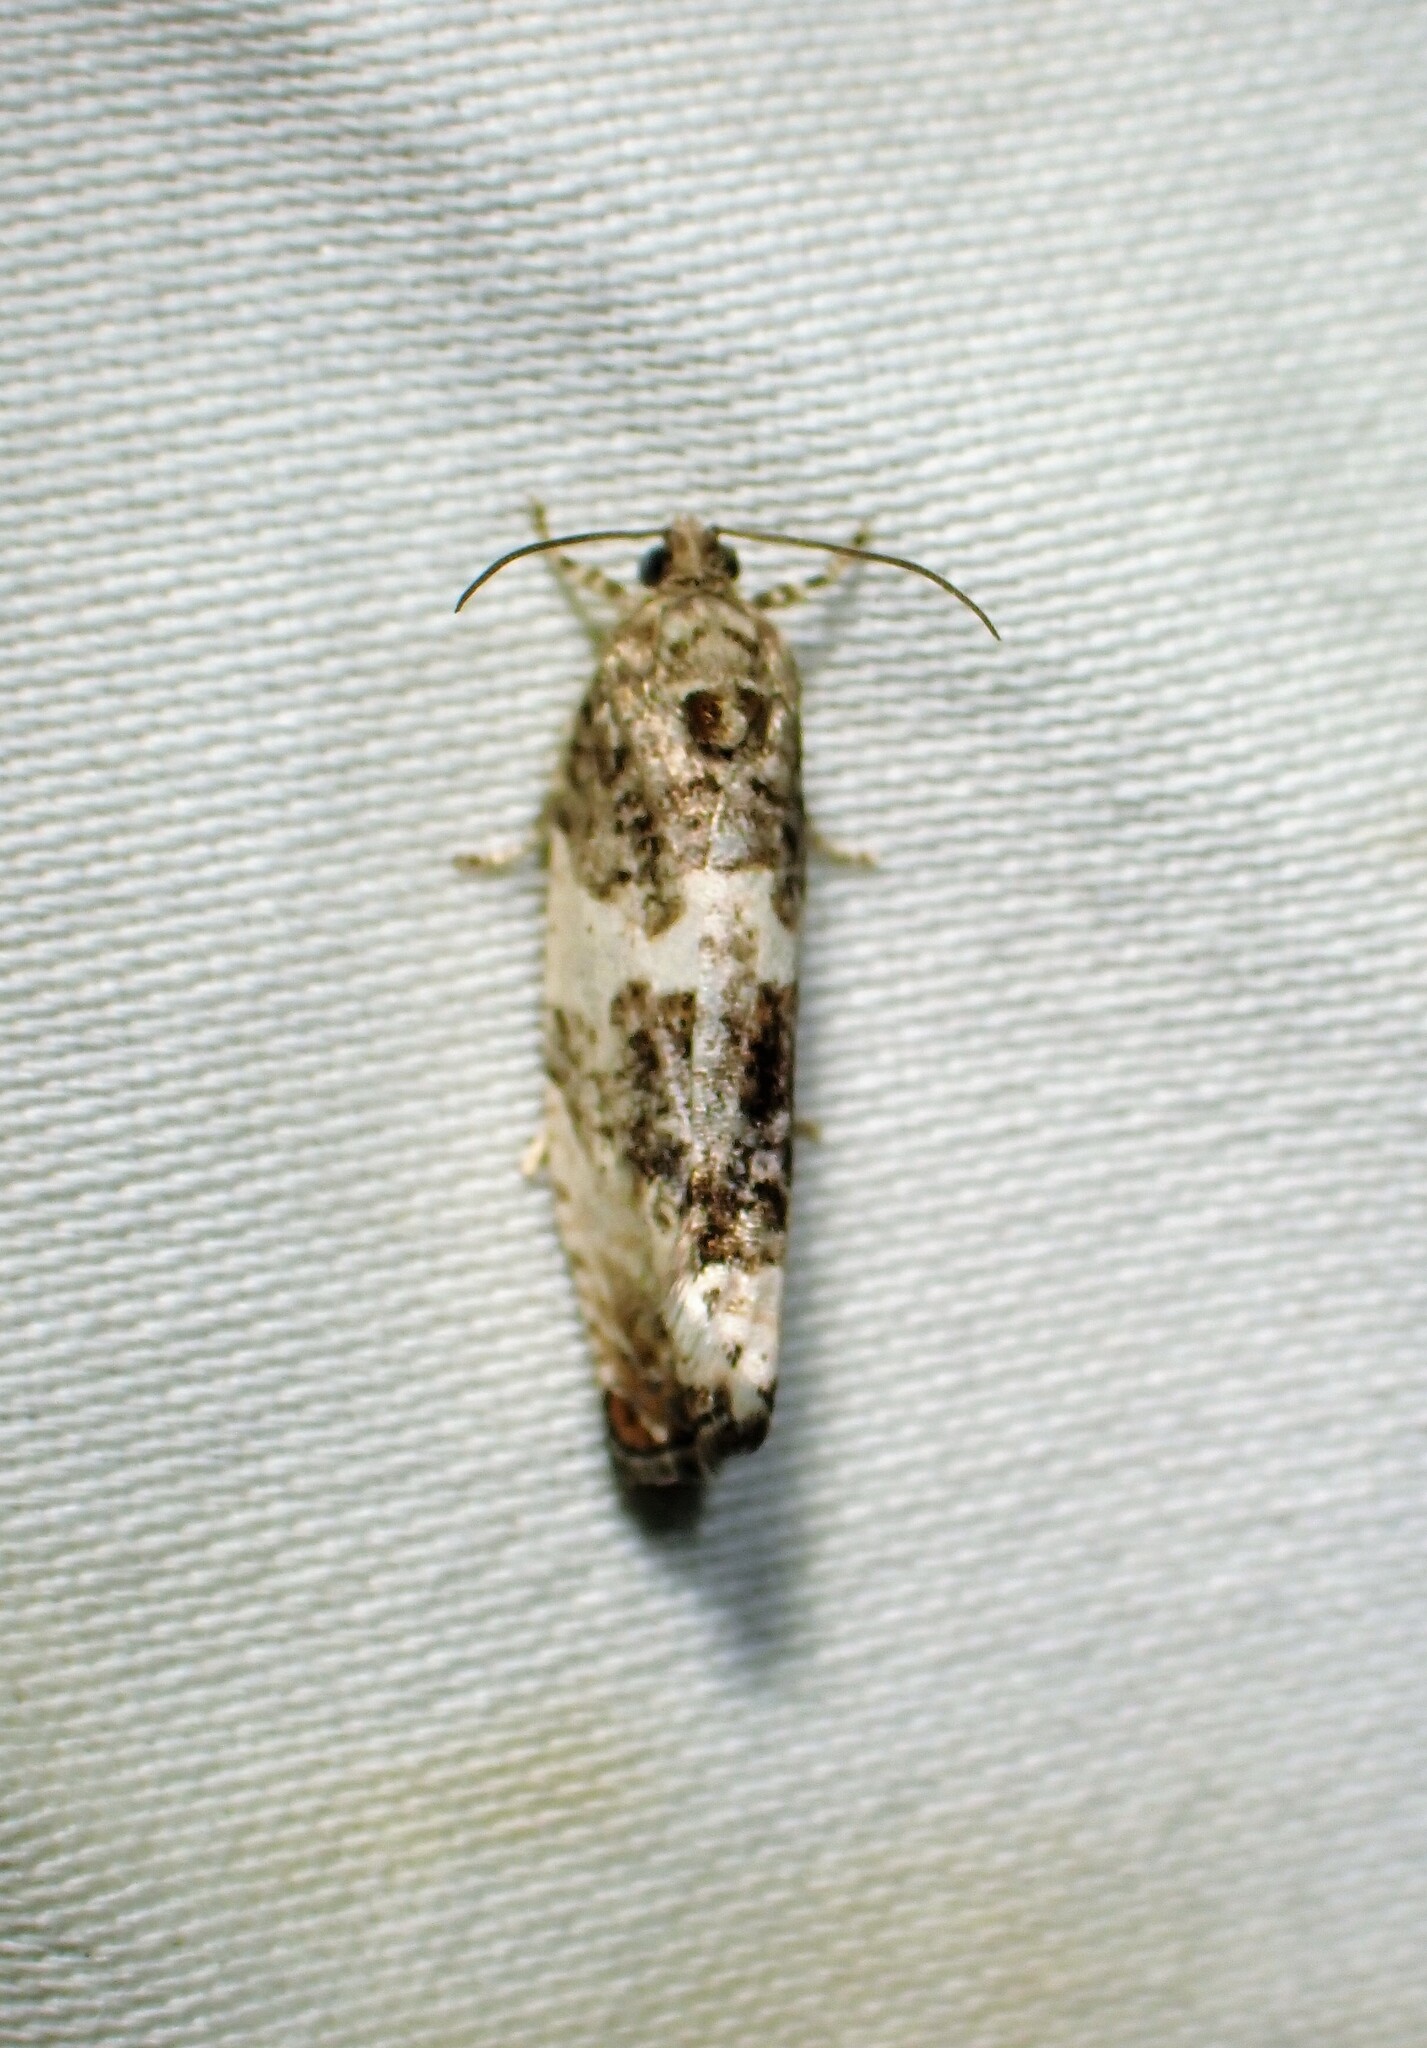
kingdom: Animalia
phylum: Arthropoda
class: Insecta
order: Lepidoptera
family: Tortricidae
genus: Pseudosciaphila
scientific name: Pseudosciaphila duplex
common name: Poplar leafroller moth
